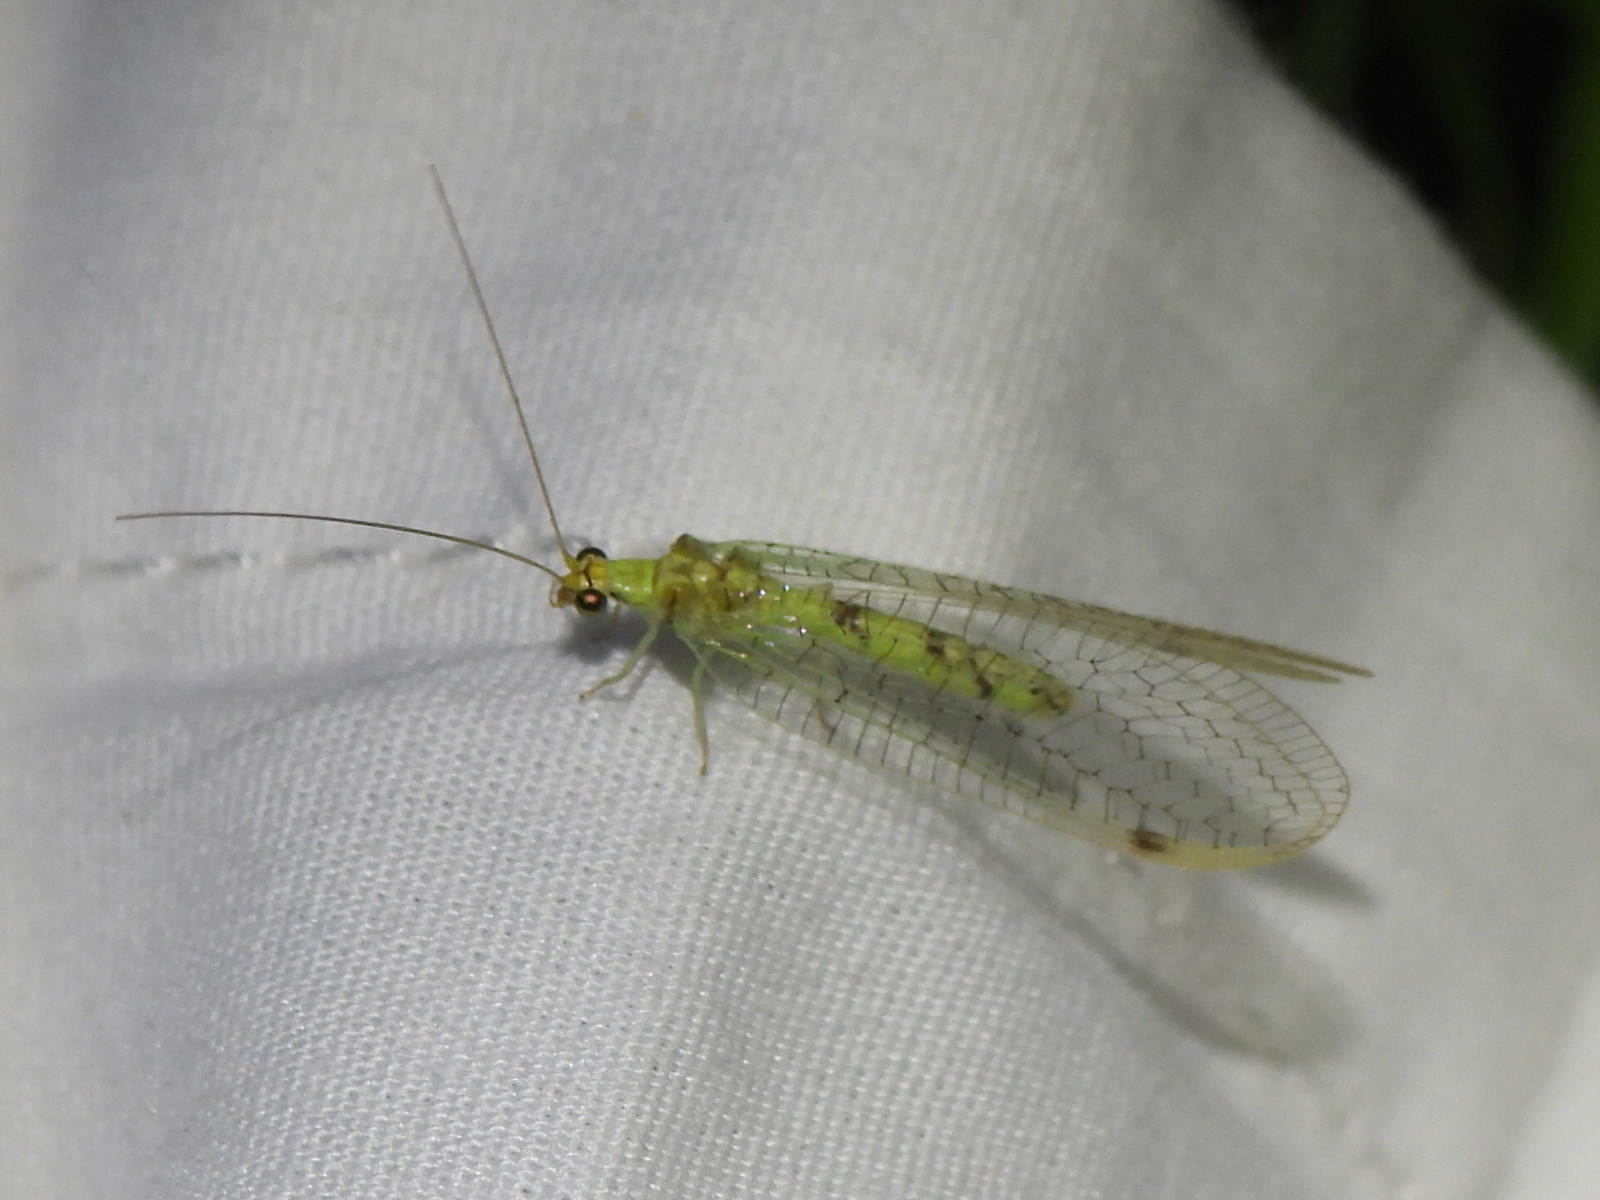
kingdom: Animalia
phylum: Arthropoda
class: Insecta
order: Neuroptera
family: Chrysopidae
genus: Leucochrysa
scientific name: Leucochrysa americana
